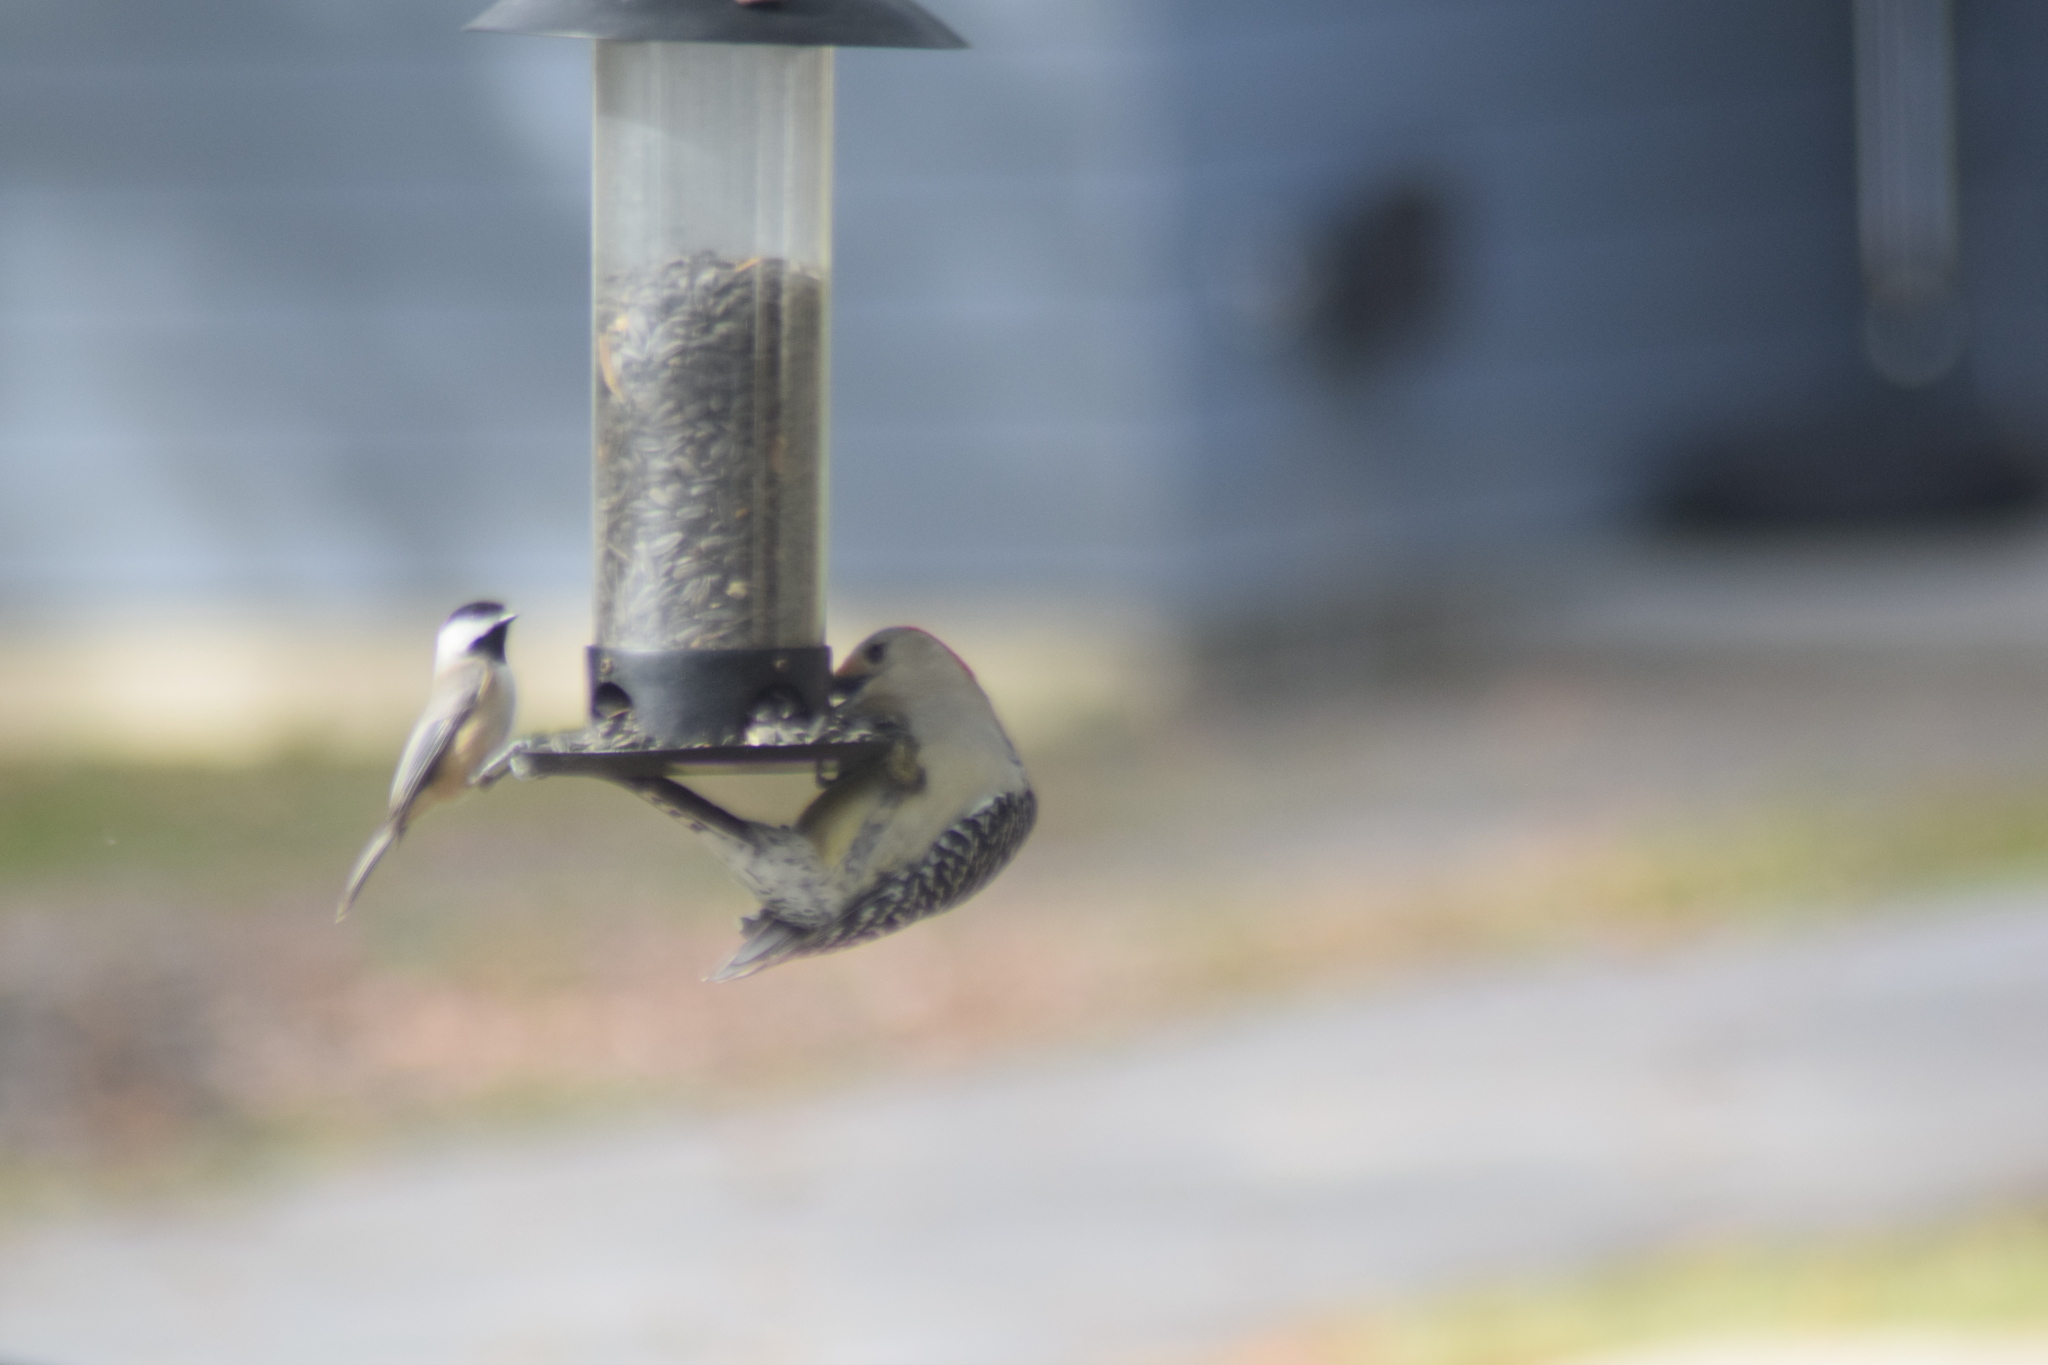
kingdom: Animalia
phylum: Chordata
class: Aves
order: Passeriformes
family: Paridae
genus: Poecile
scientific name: Poecile carolinensis
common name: Carolina chickadee
